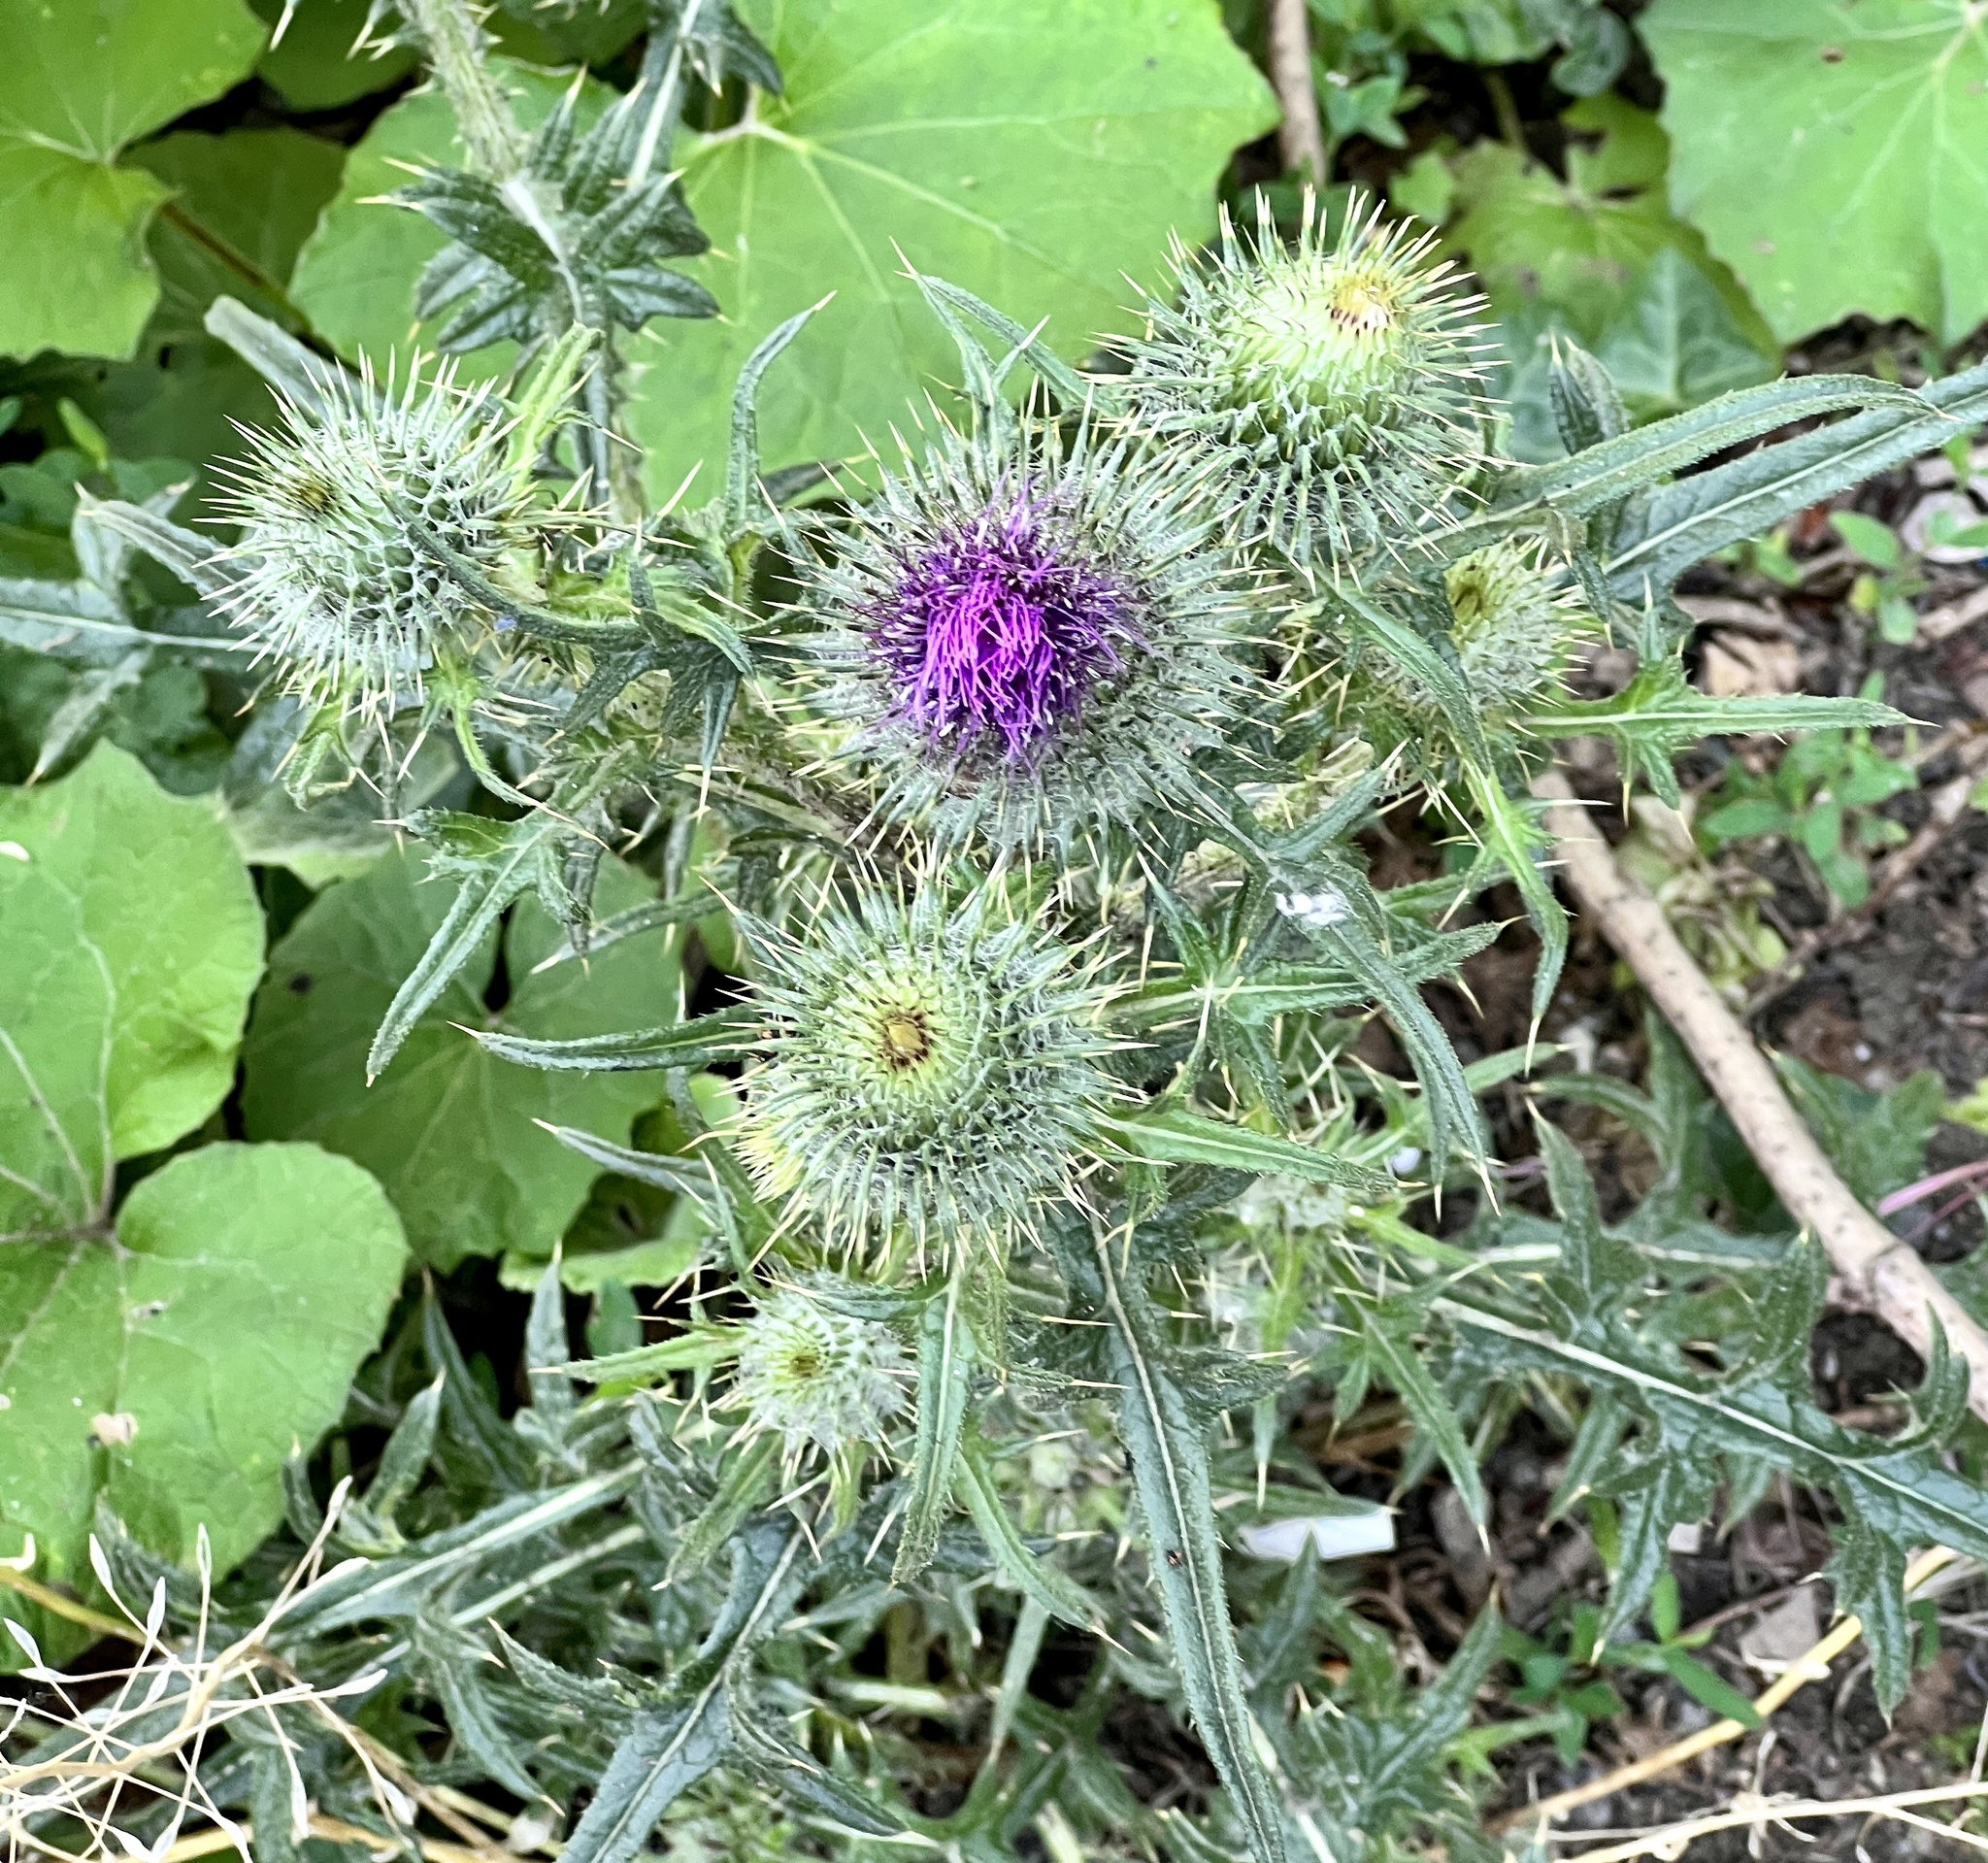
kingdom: Plantae
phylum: Tracheophyta
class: Magnoliopsida
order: Asterales
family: Asteraceae
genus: Cirsium
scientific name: Cirsium vulgare
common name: Bull thistle
